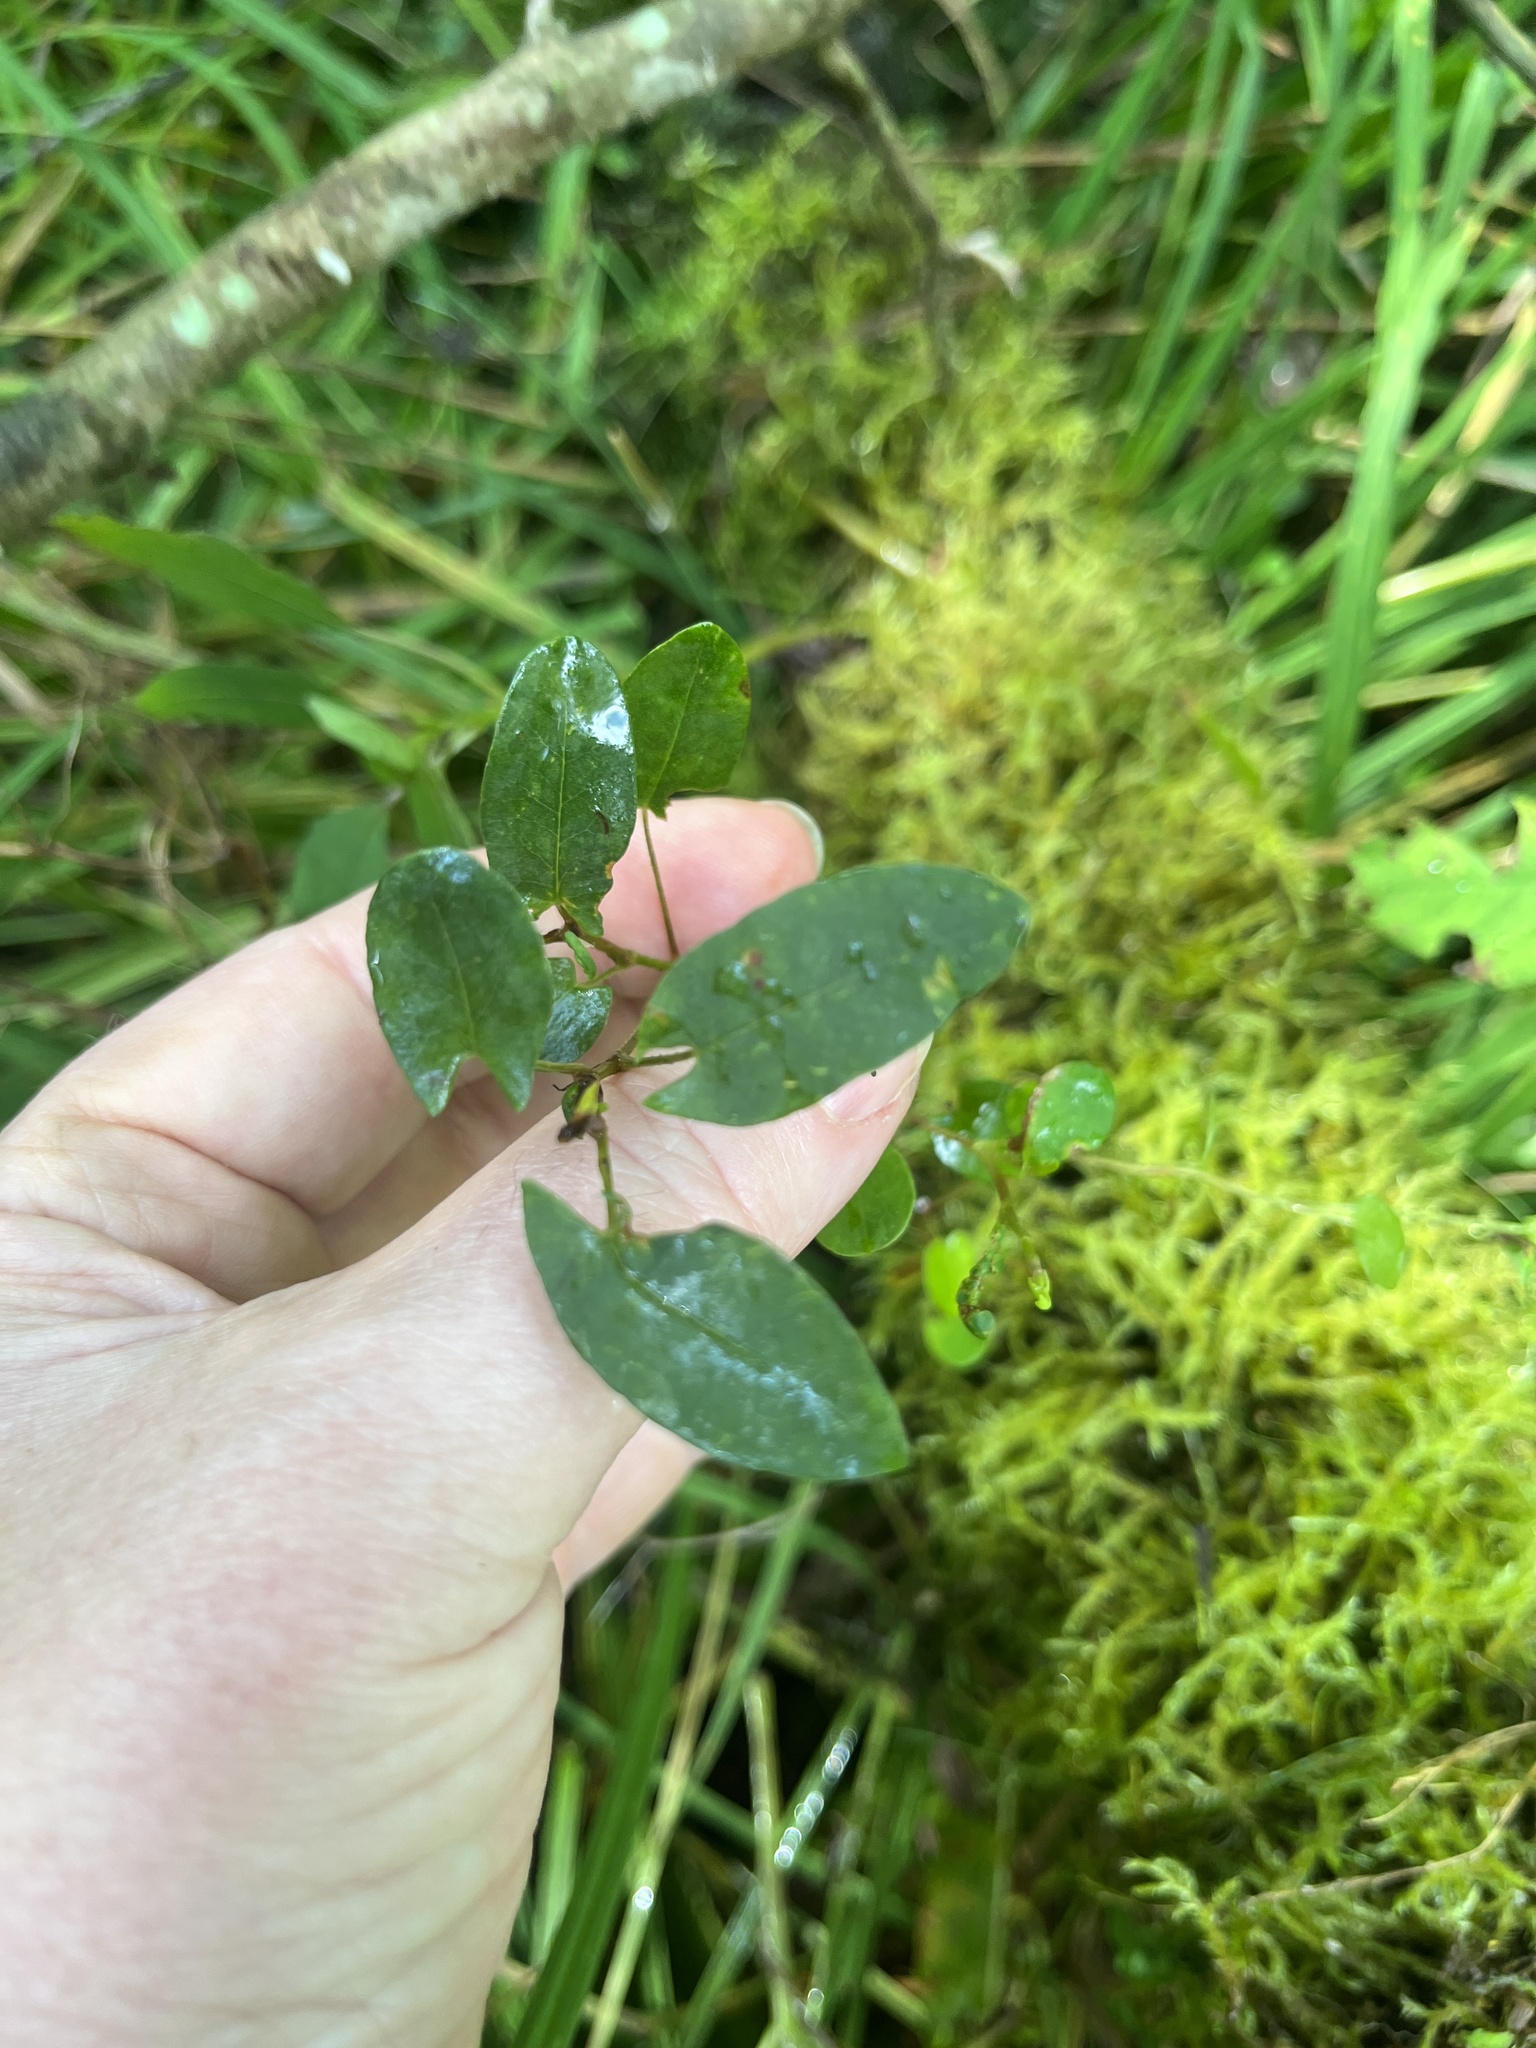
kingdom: Plantae
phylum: Tracheophyta
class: Magnoliopsida
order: Caryophyllales
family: Polygonaceae
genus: Persicaria
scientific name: Persicaria sagittata
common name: American tearthumb
